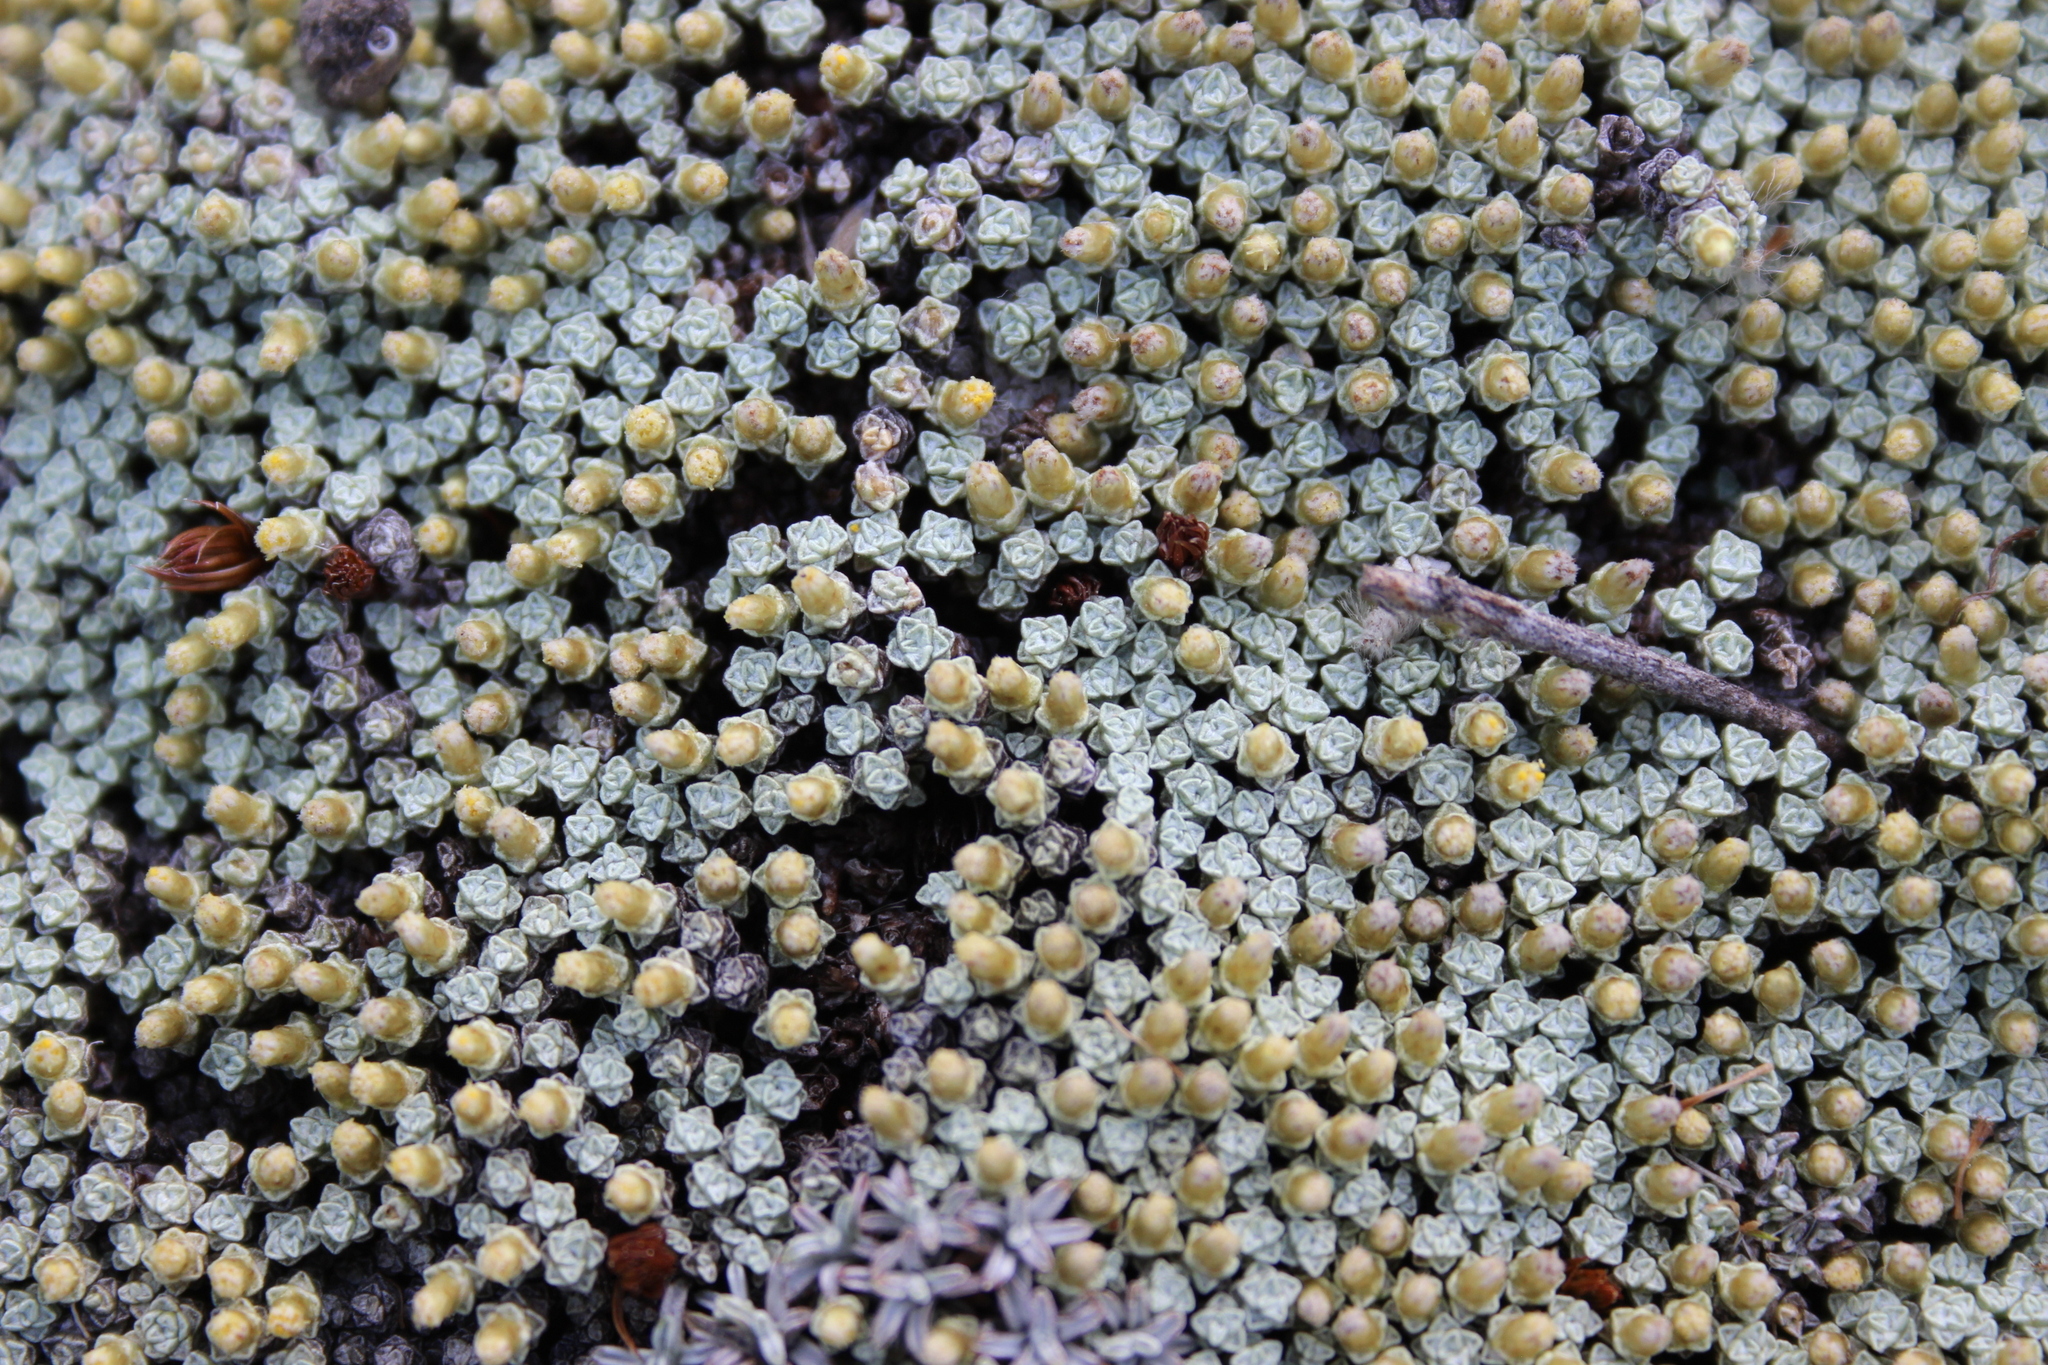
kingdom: Plantae
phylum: Tracheophyta
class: Magnoliopsida
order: Asterales
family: Asteraceae
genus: Raoulia
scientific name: Raoulia australis
